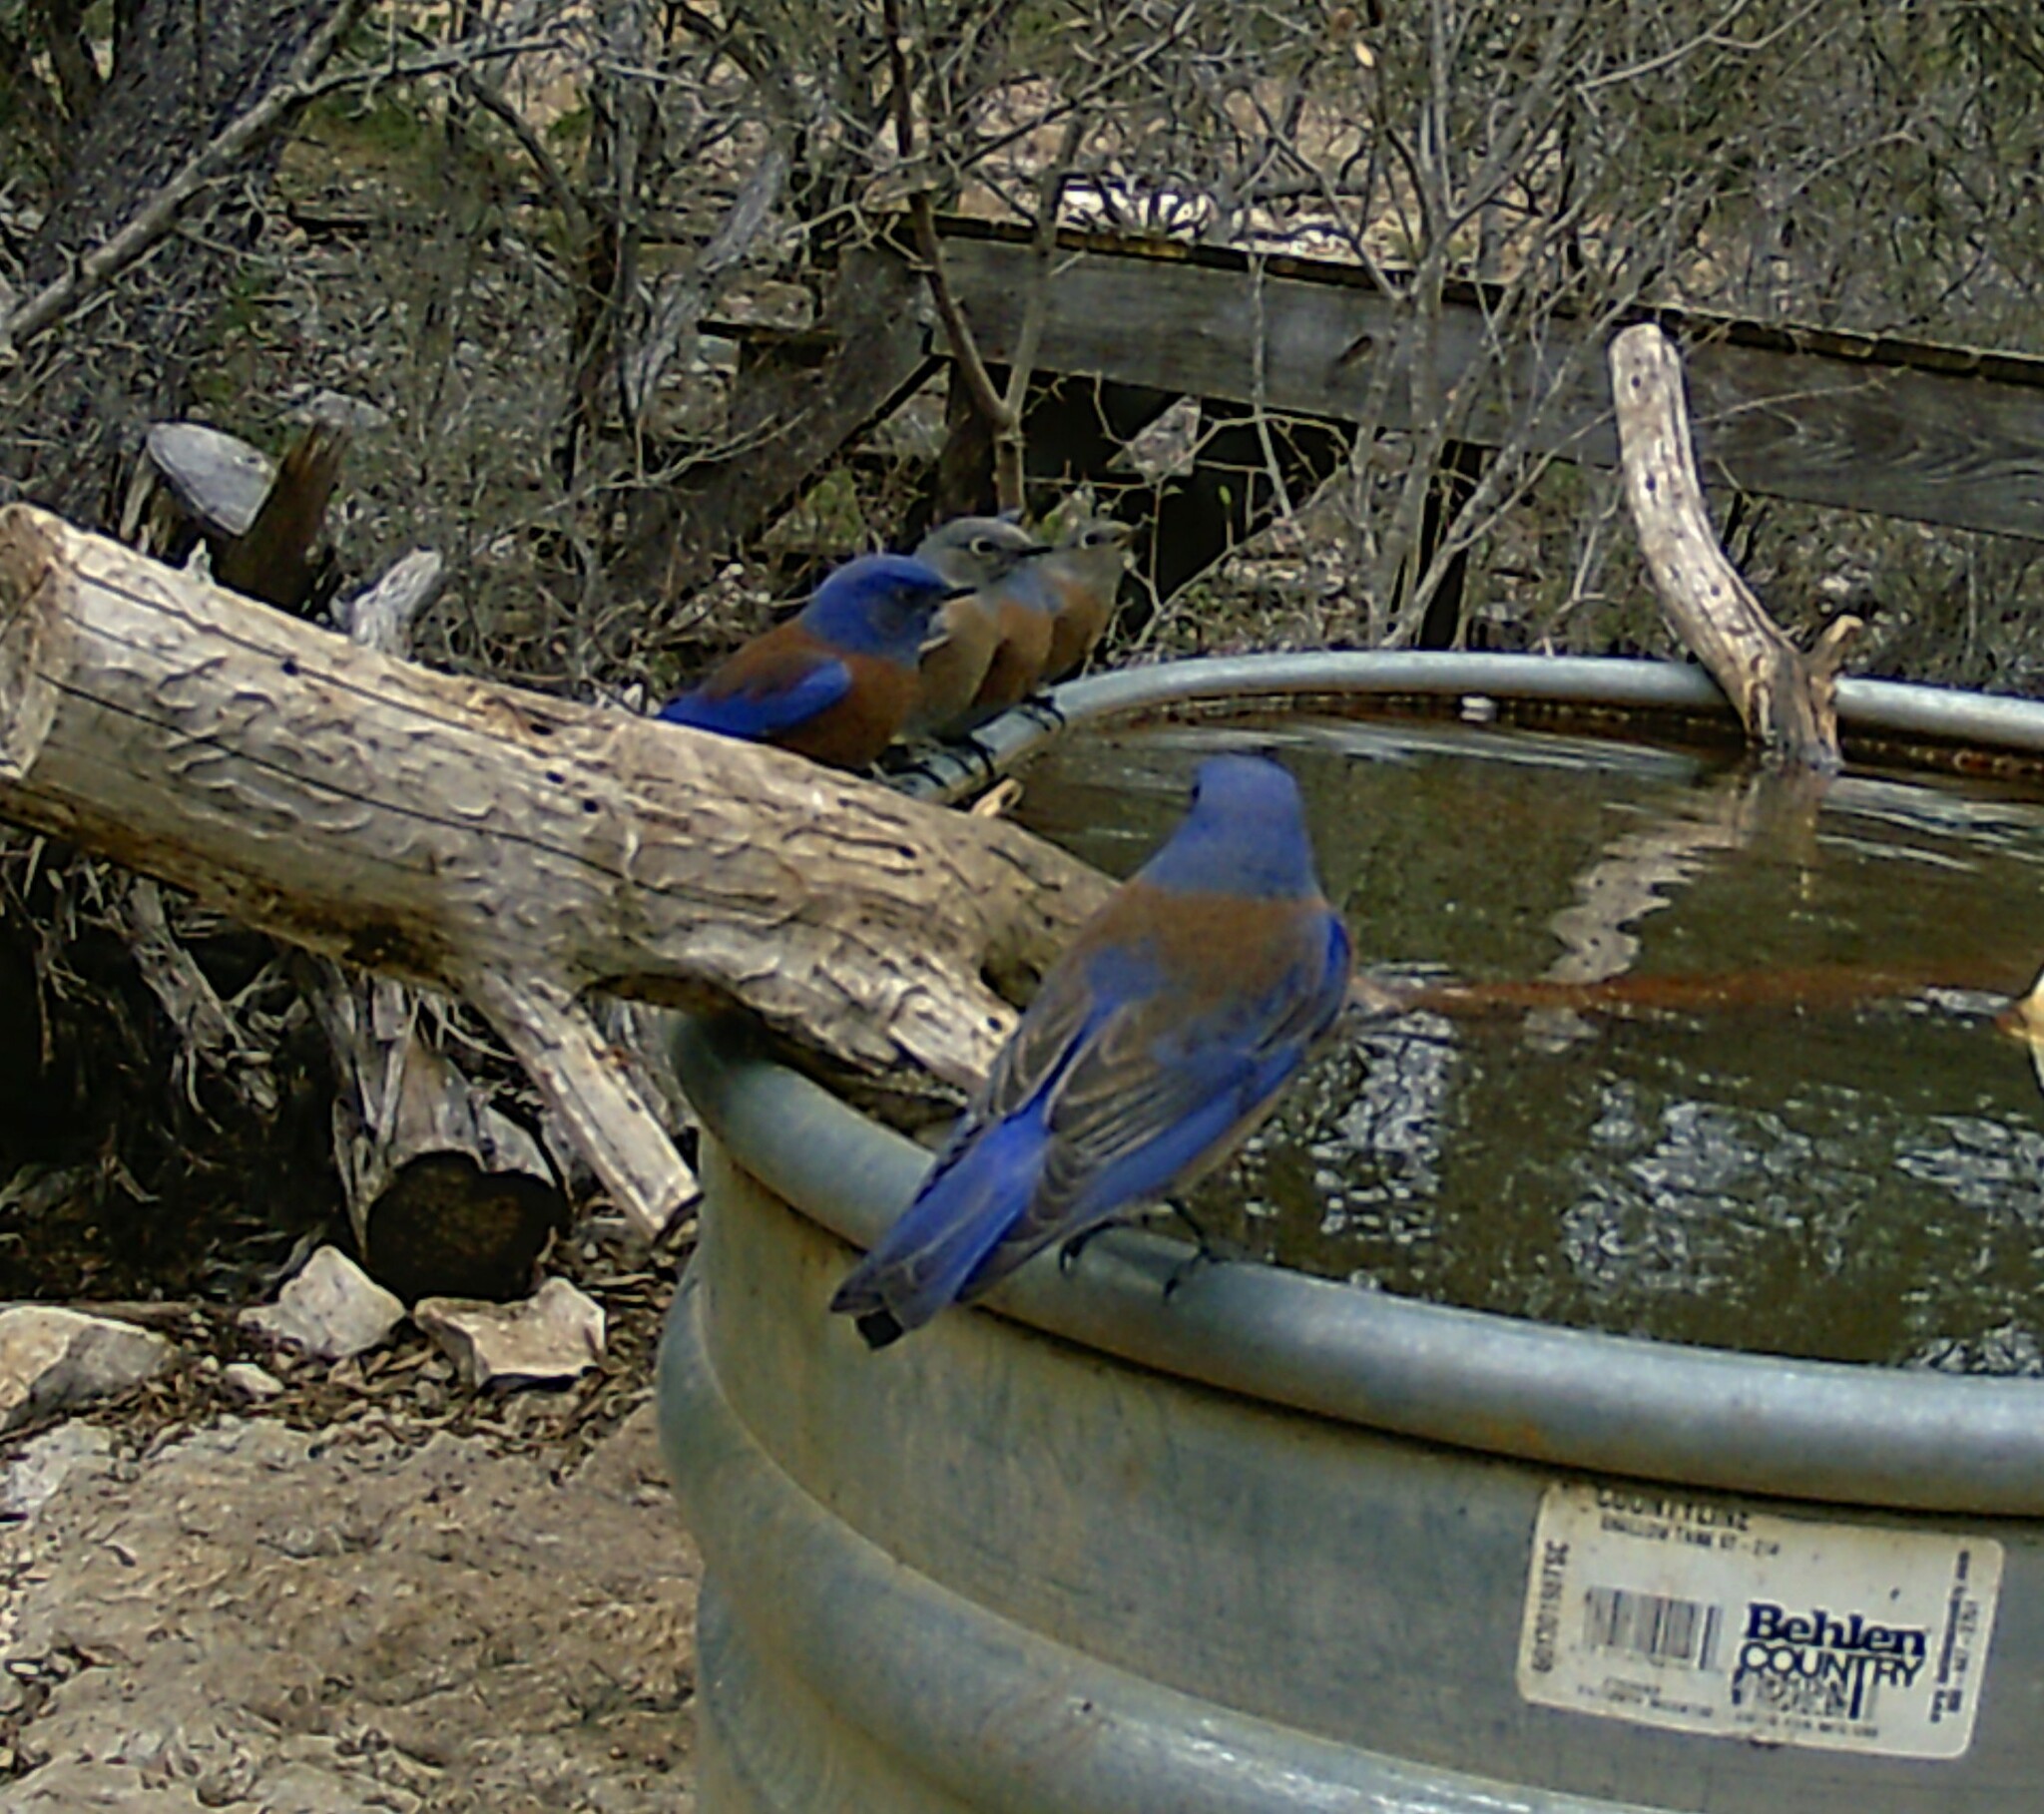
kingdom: Animalia
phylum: Chordata
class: Aves
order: Passeriformes
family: Turdidae
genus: Sialia
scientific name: Sialia mexicana
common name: Western bluebird
